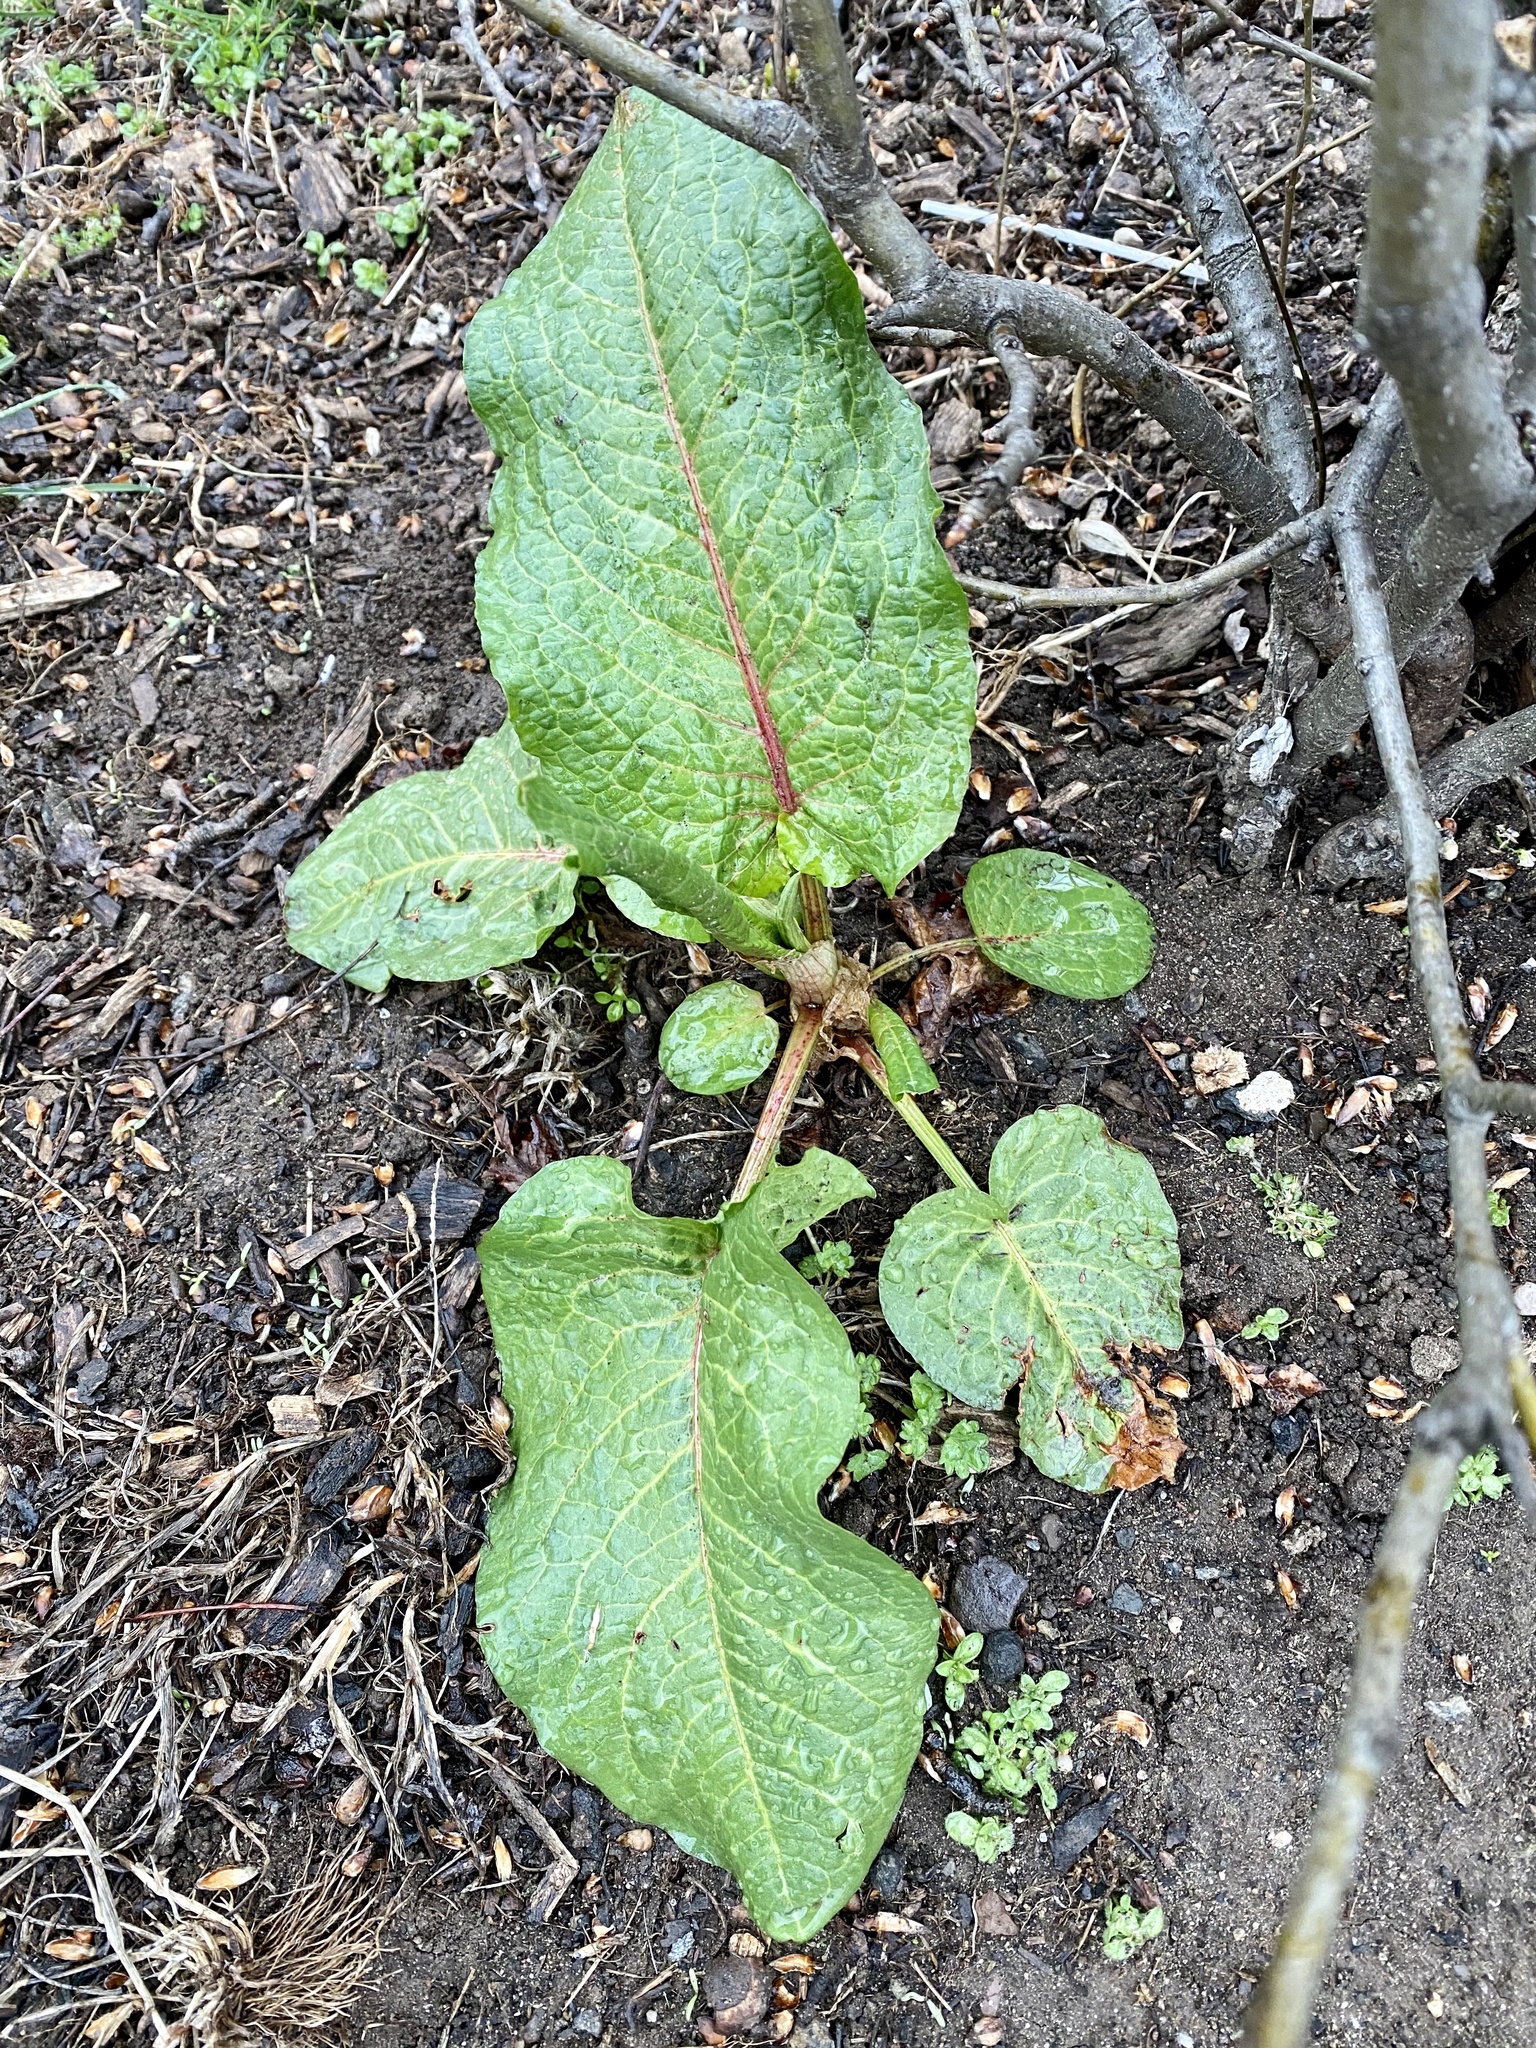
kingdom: Plantae
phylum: Tracheophyta
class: Magnoliopsida
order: Caryophyllales
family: Polygonaceae
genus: Rumex
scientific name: Rumex obtusifolius
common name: Bitter dock
